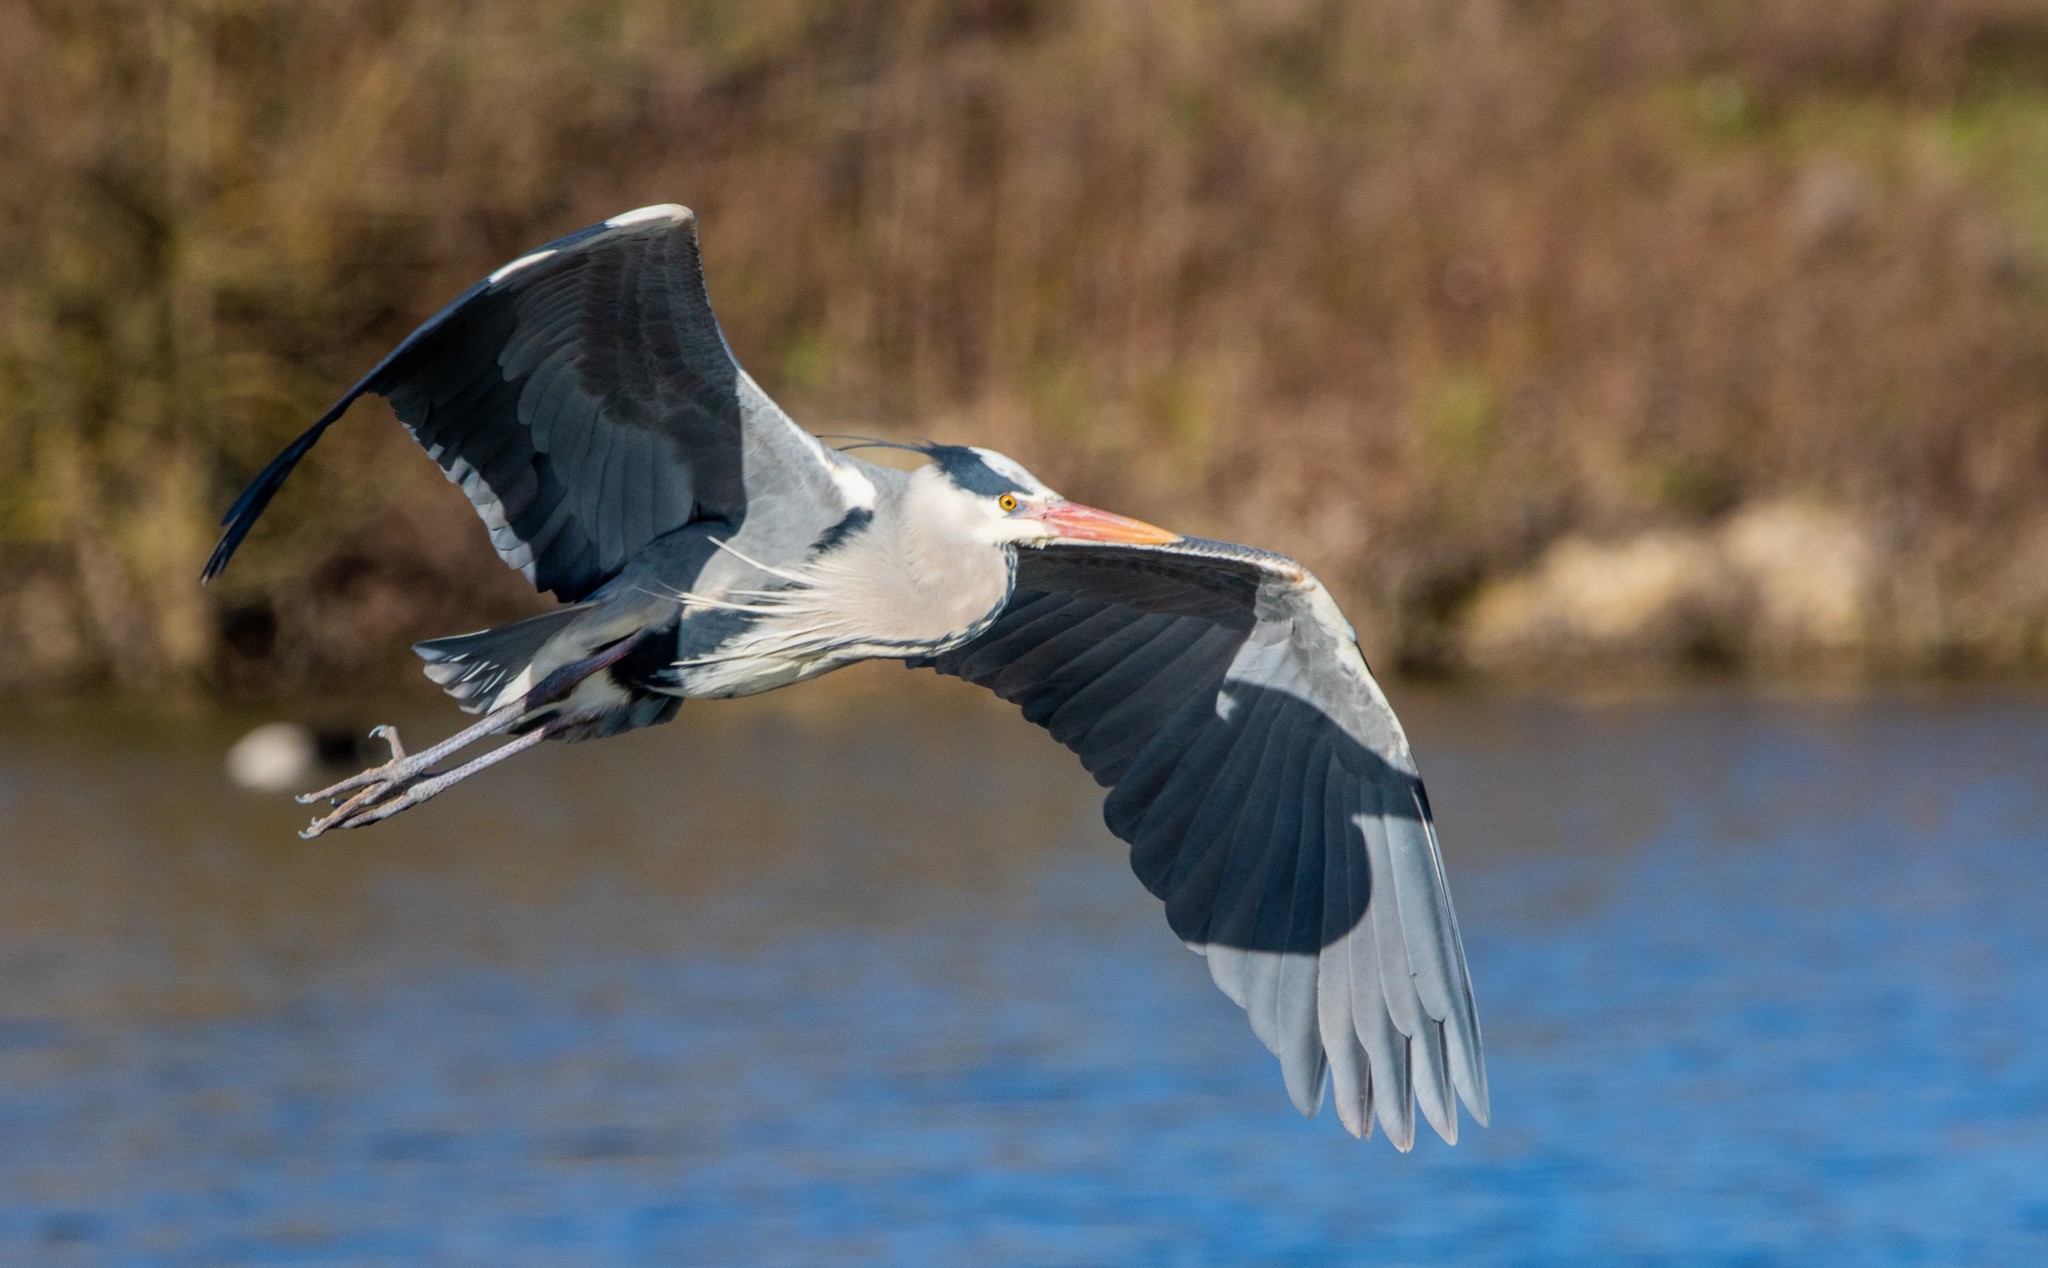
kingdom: Animalia
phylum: Chordata
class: Aves
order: Pelecaniformes
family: Ardeidae
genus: Ardea
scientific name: Ardea cinerea
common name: Grey heron
